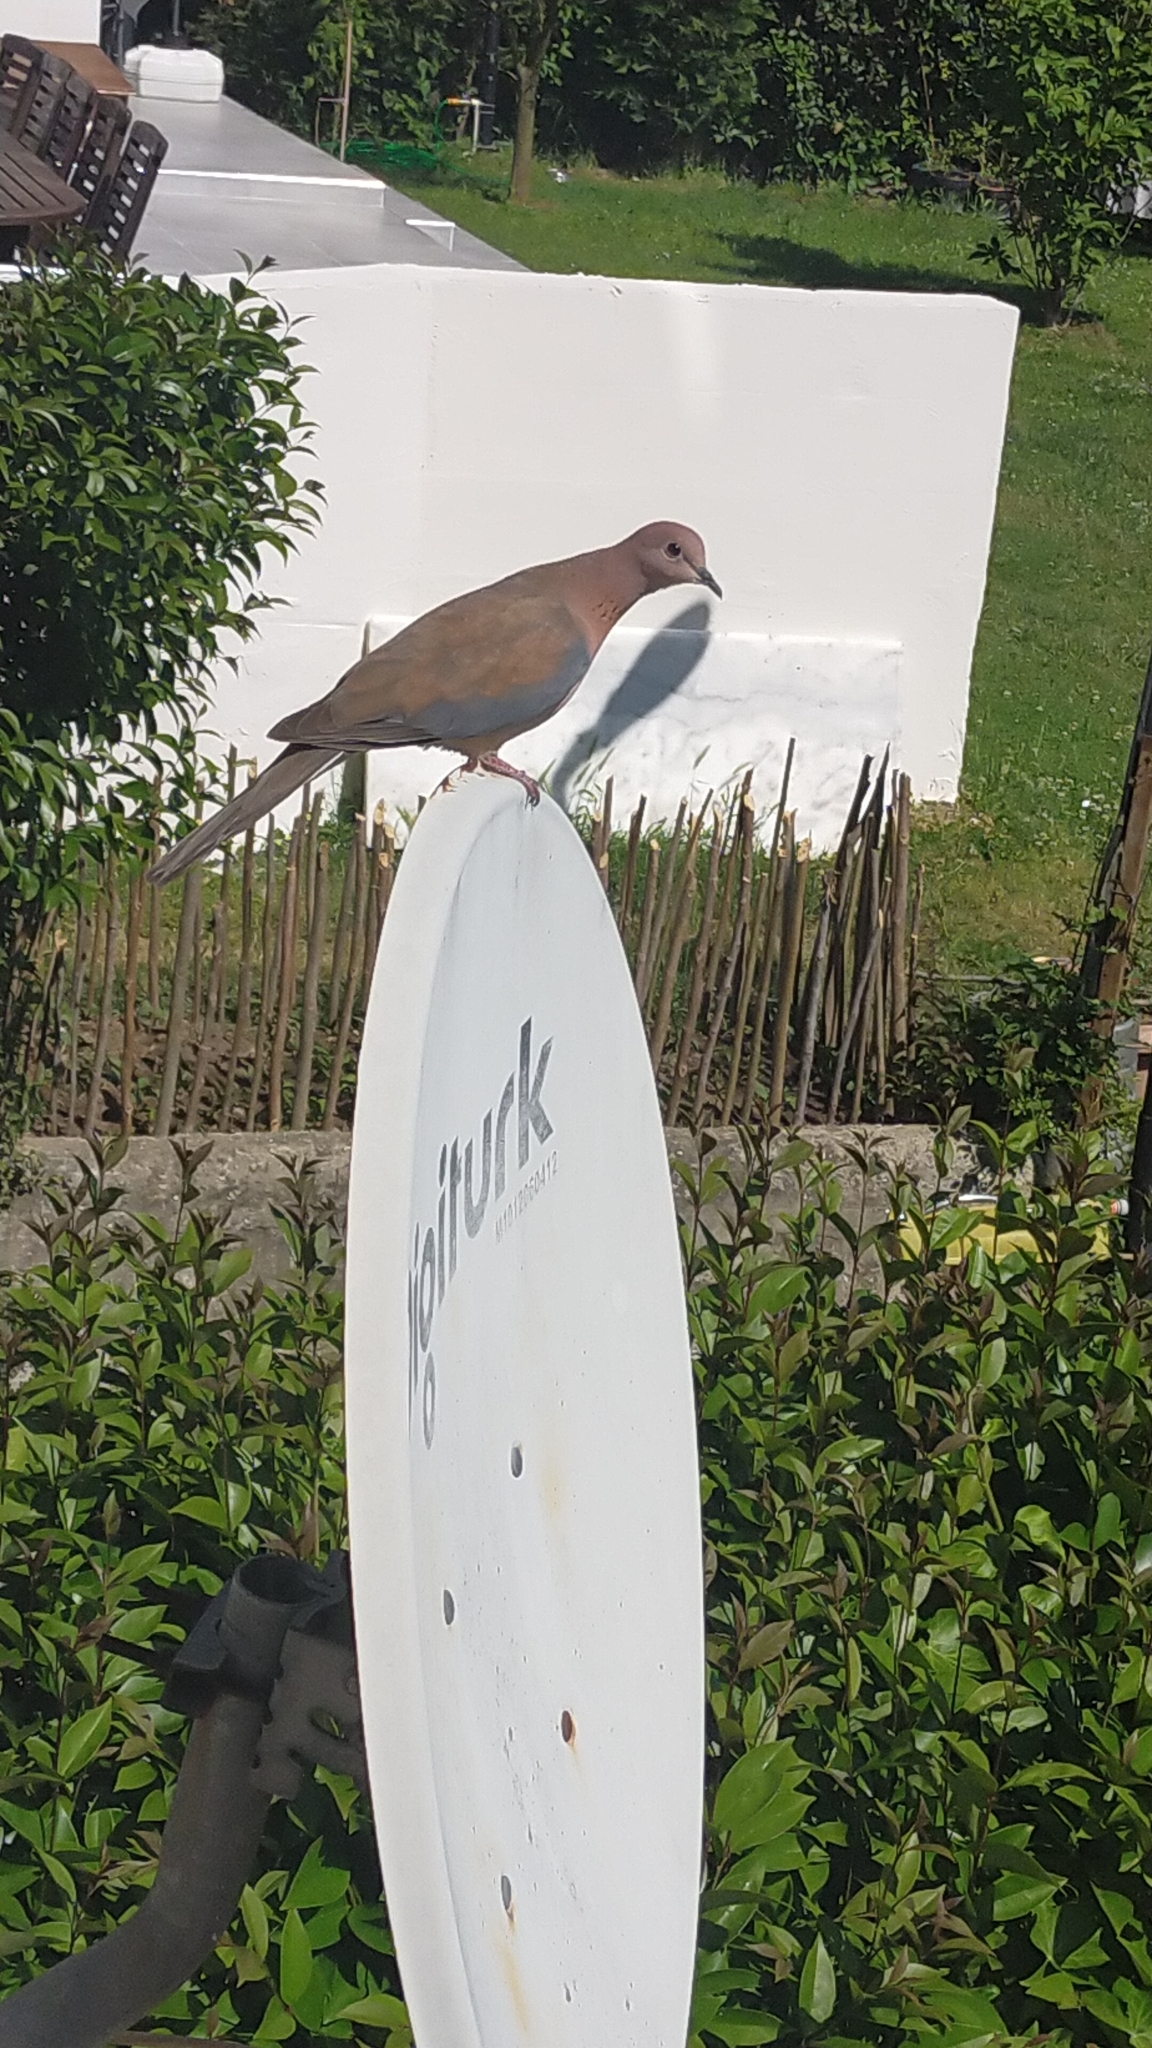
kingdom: Animalia
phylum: Chordata
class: Aves
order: Columbiformes
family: Columbidae
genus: Spilopelia
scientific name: Spilopelia senegalensis
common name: Laughing dove
